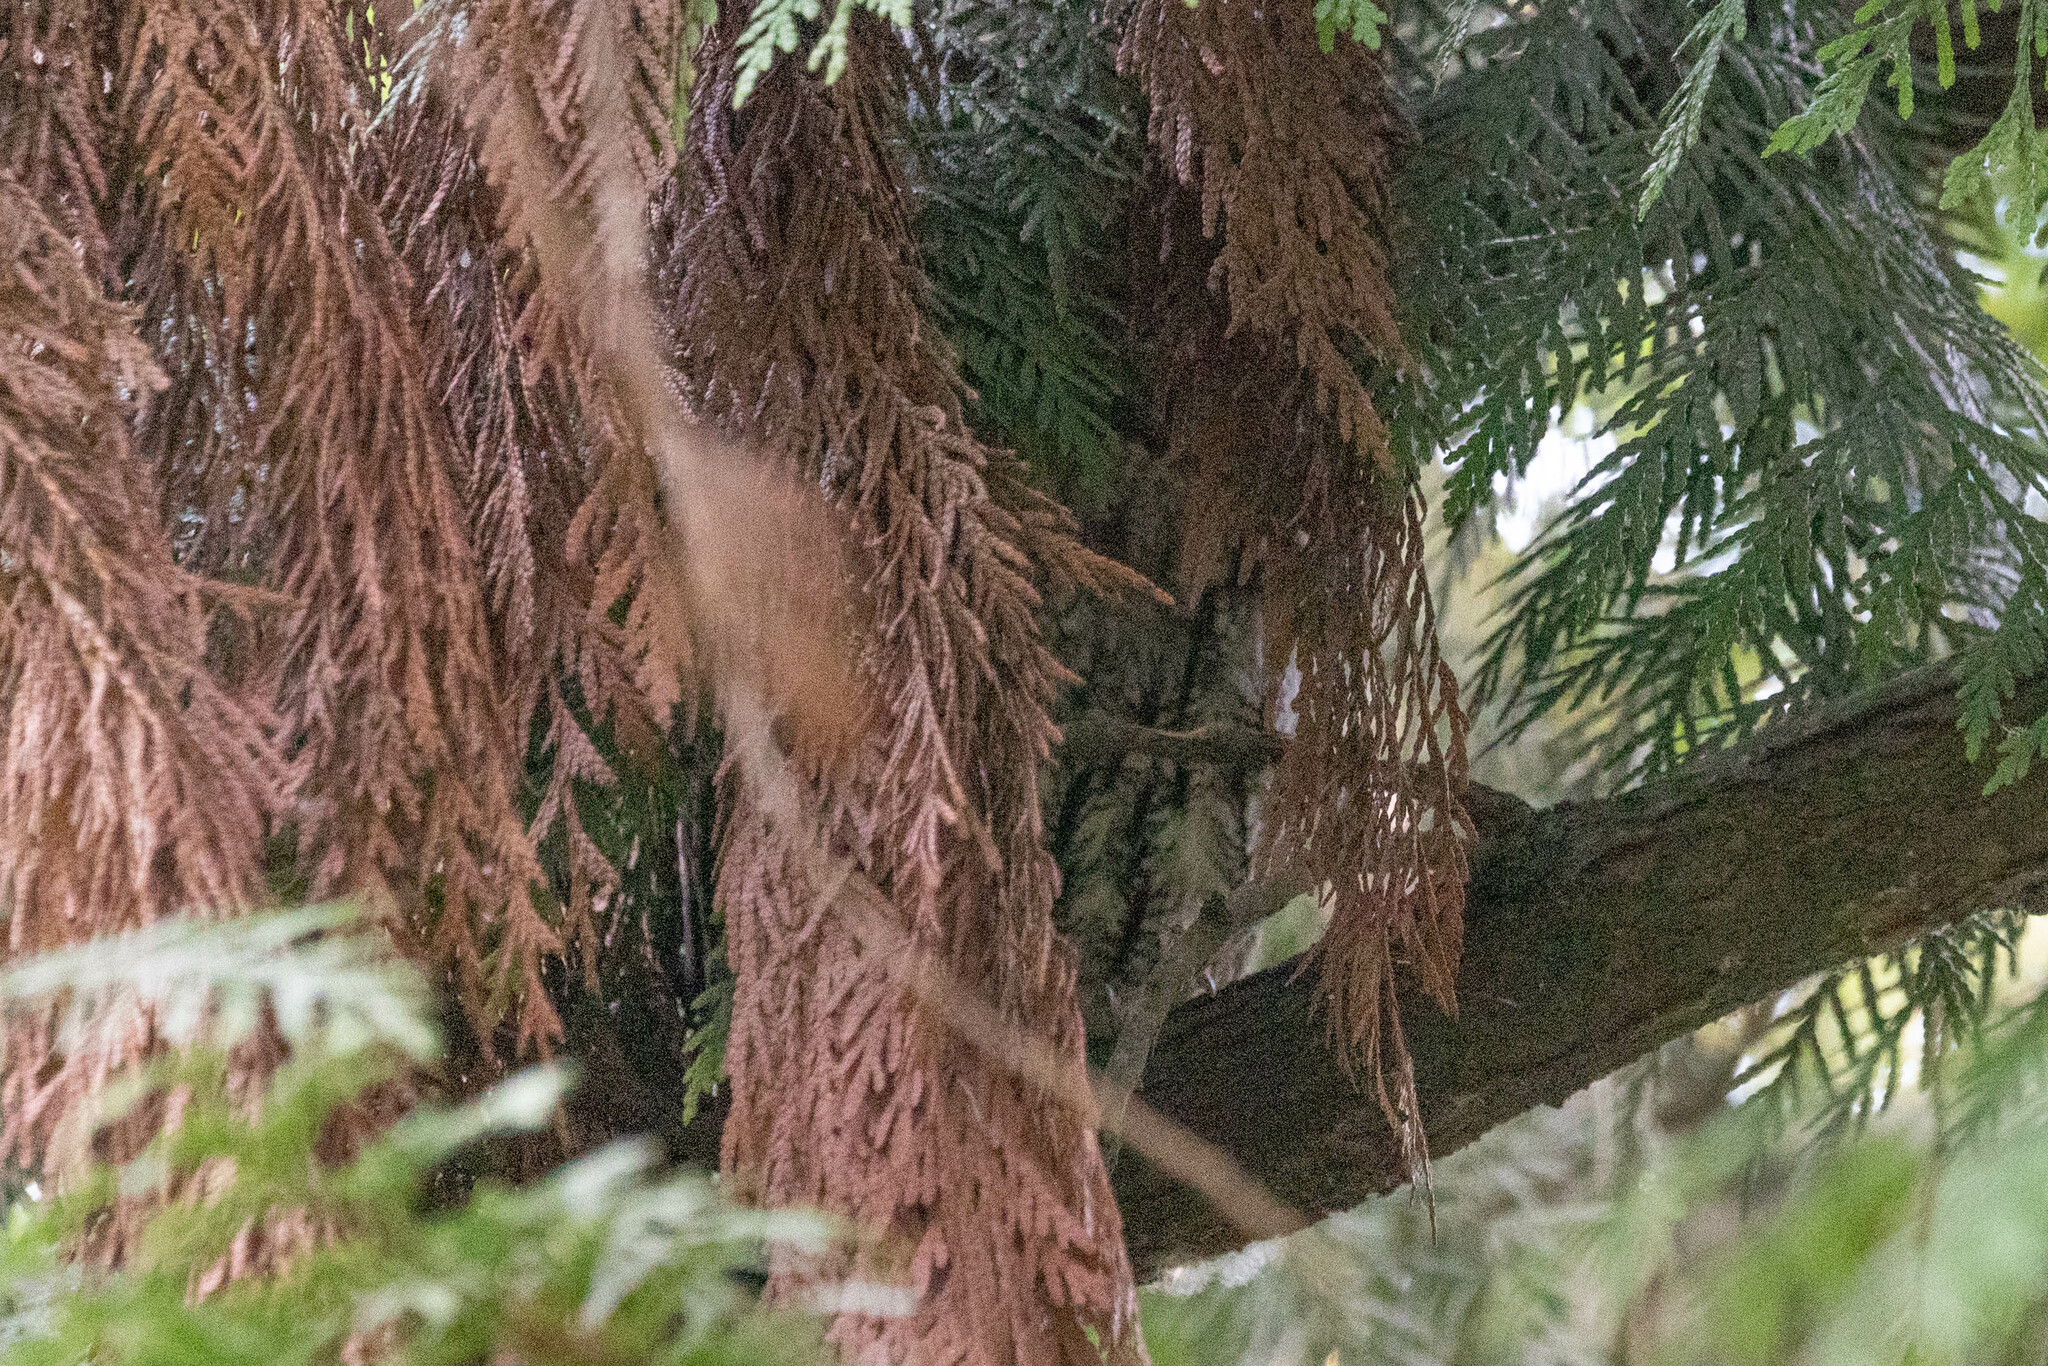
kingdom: Animalia
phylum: Chordata
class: Aves
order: Strigiformes
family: Strigidae
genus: Megascops
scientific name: Megascops kennicottii
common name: Western screech-owl
